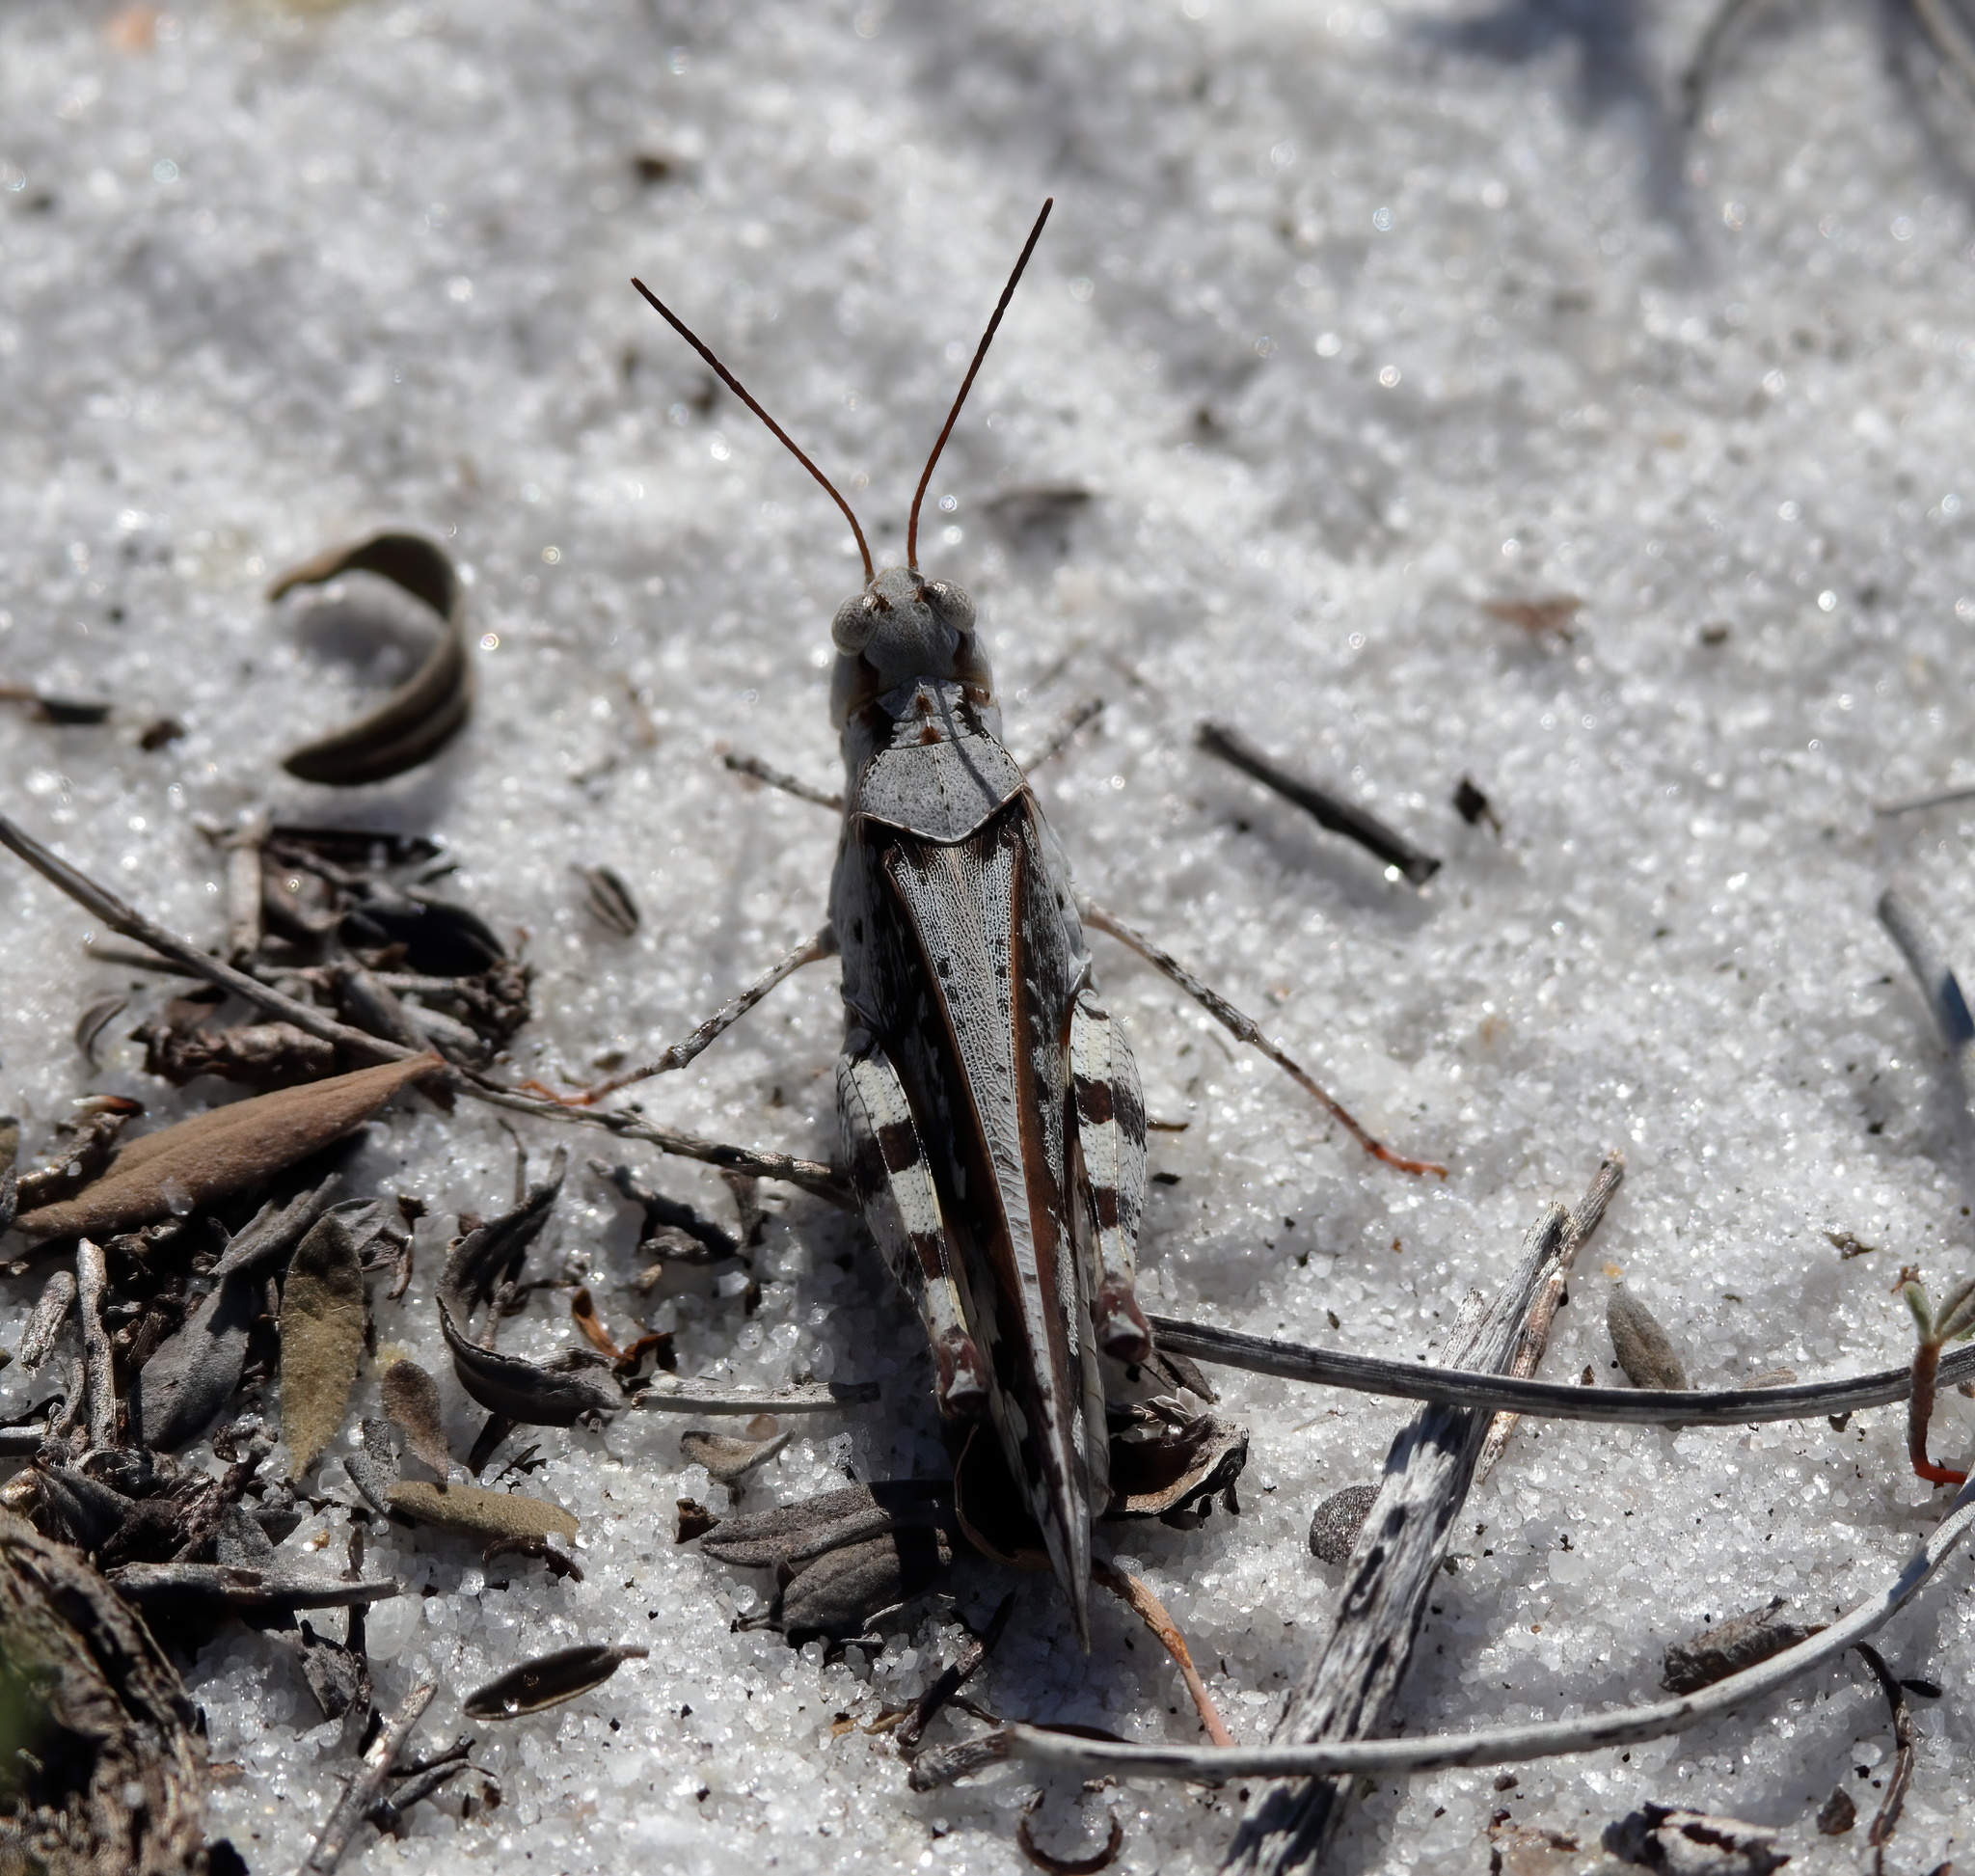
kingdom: Animalia
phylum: Arthropoda
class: Insecta
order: Orthoptera
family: Acrididae
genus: Spharagemon
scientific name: Spharagemon marmoratum
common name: Marbled grasshopper
